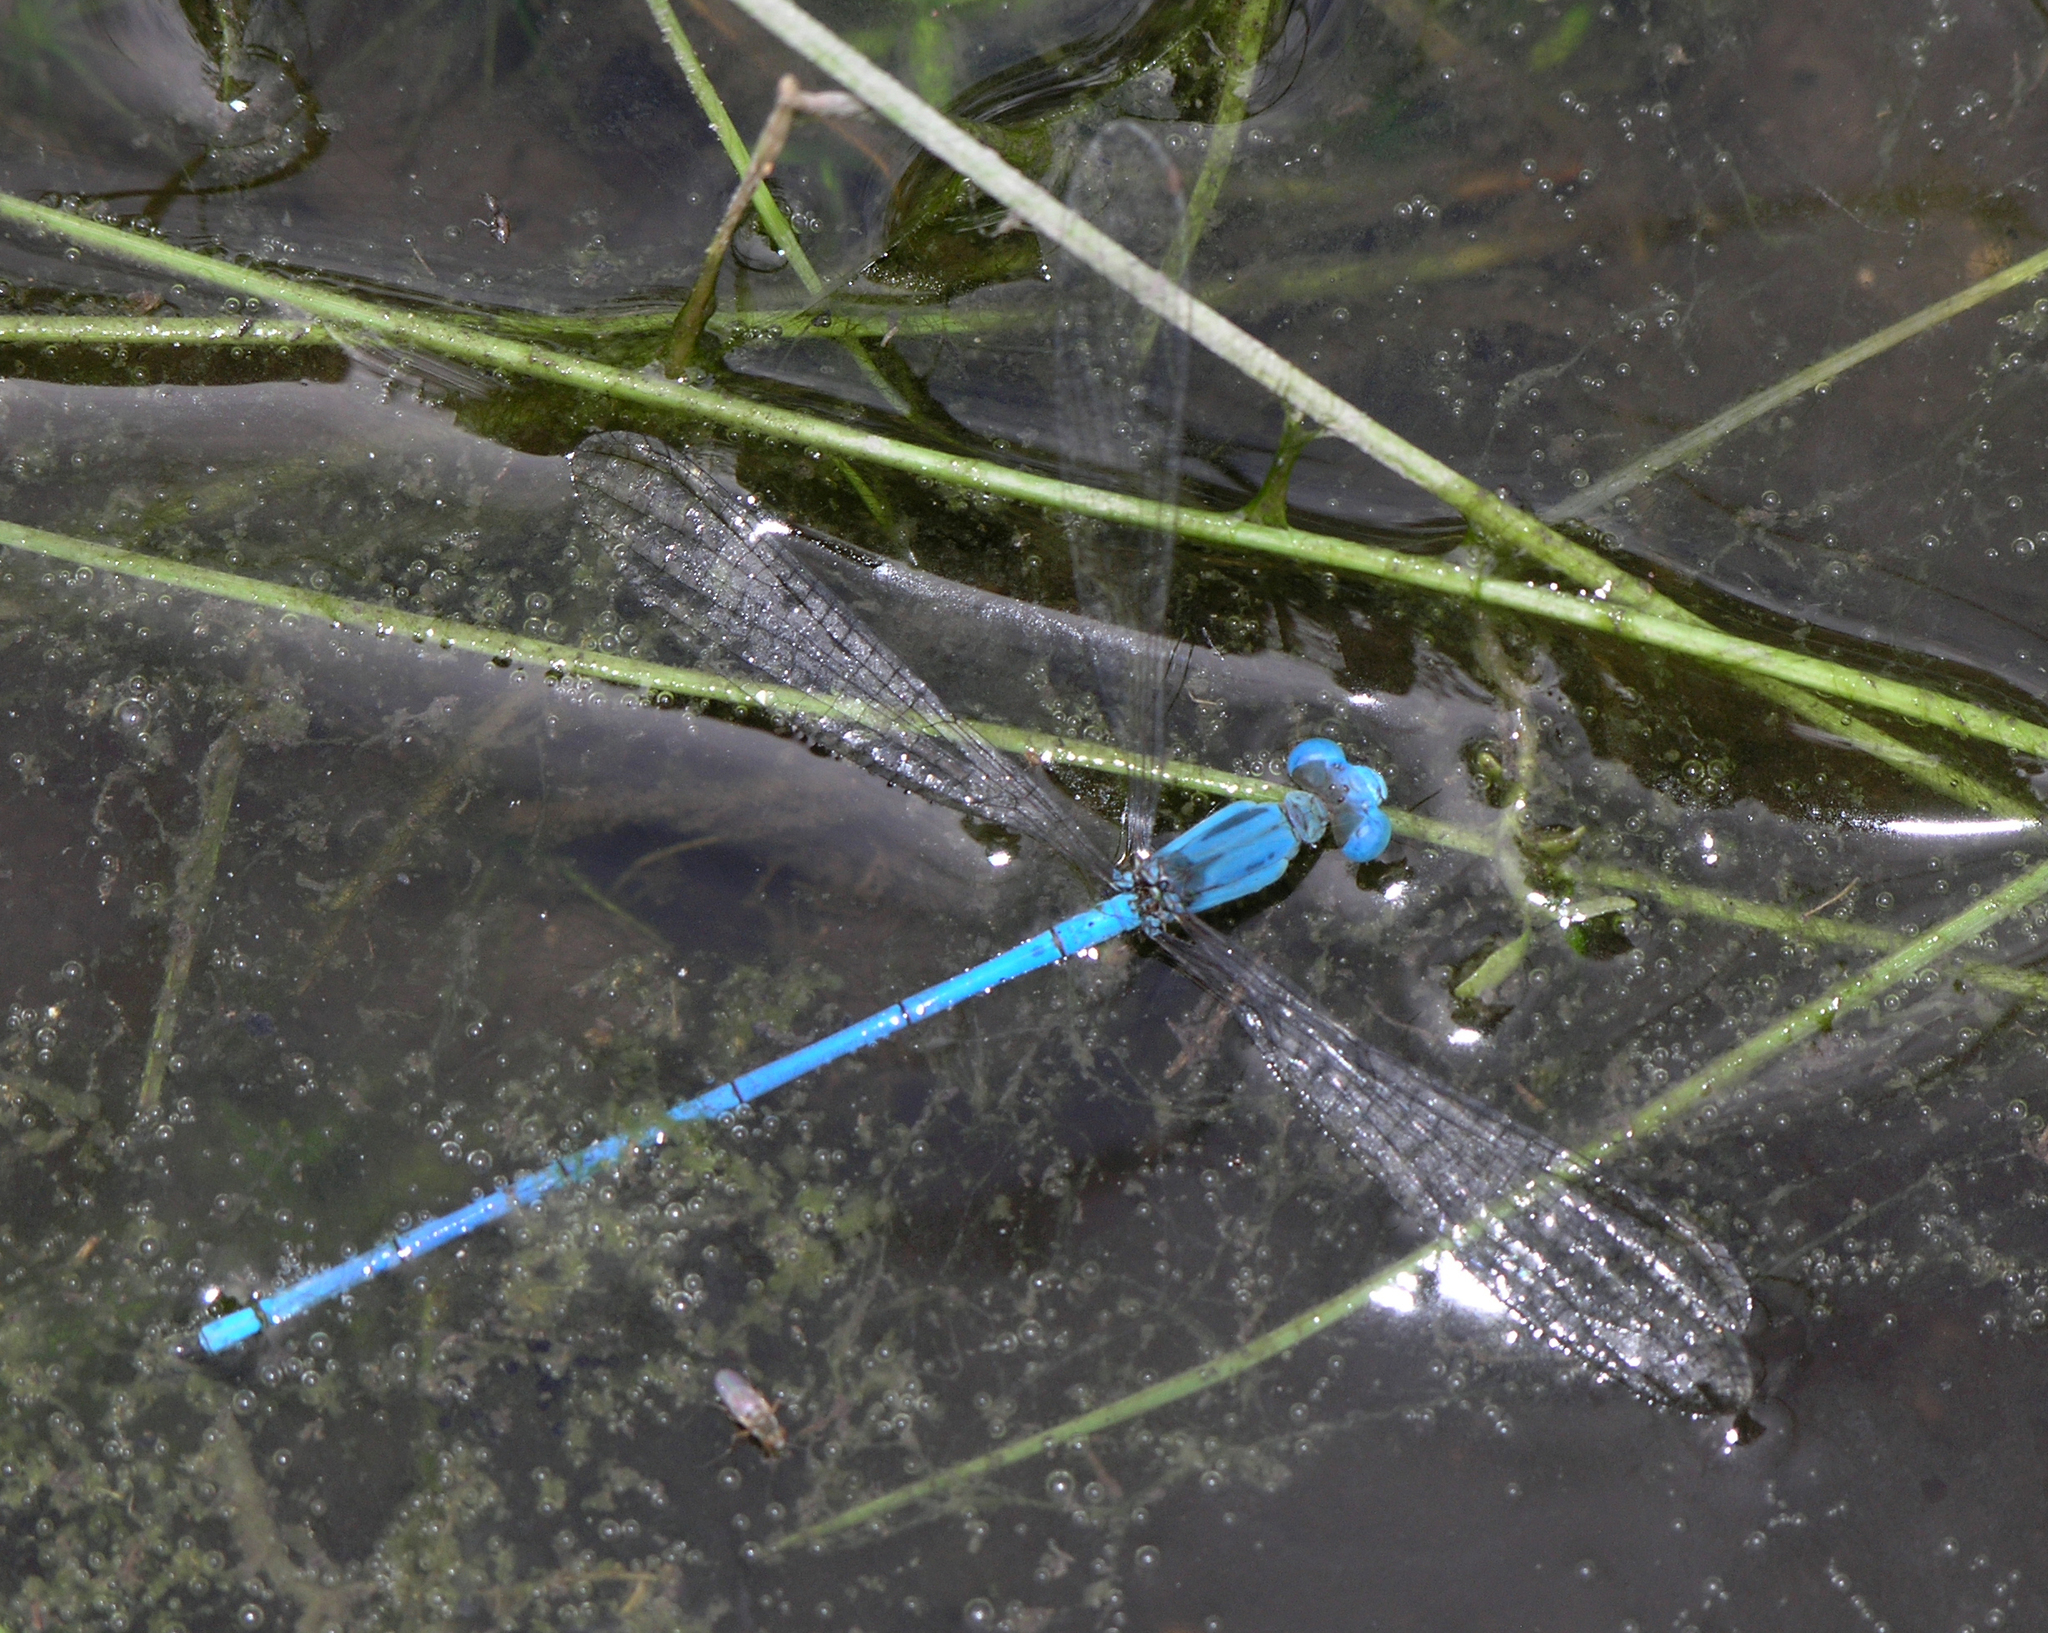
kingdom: Animalia
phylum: Arthropoda
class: Insecta
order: Odonata
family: Coenagrionidae
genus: Ceriagrion
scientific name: Ceriagrion azureum
